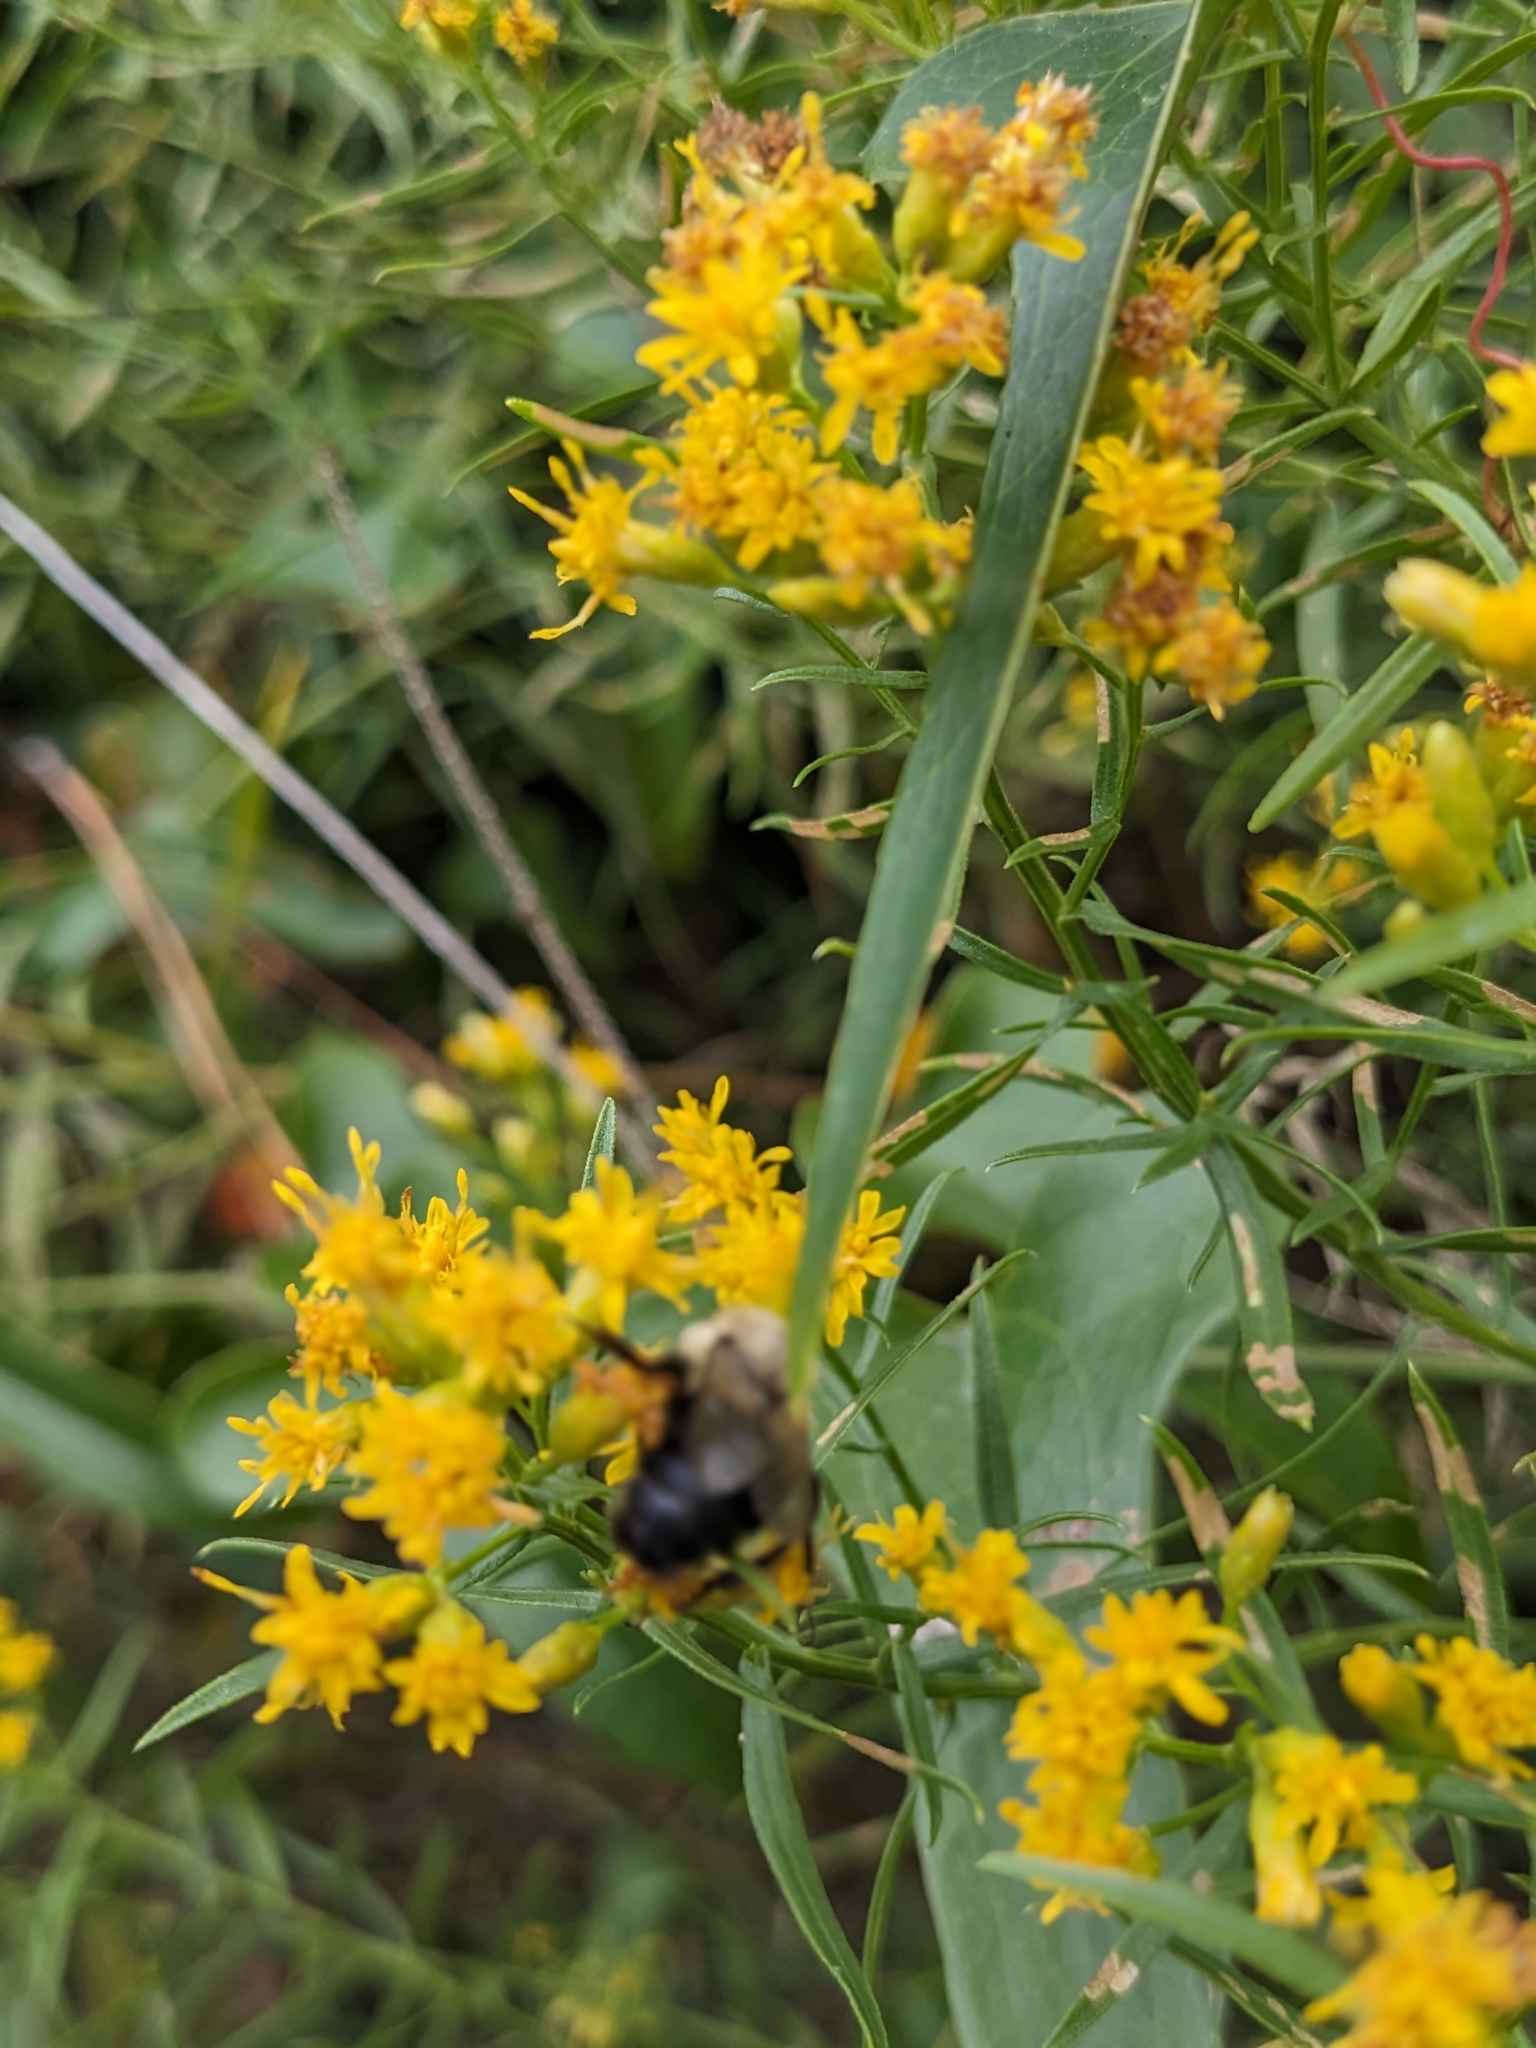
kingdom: Animalia
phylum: Arthropoda
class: Insecta
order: Hymenoptera
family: Apidae
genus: Bombus
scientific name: Bombus impatiens
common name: Common eastern bumble bee
